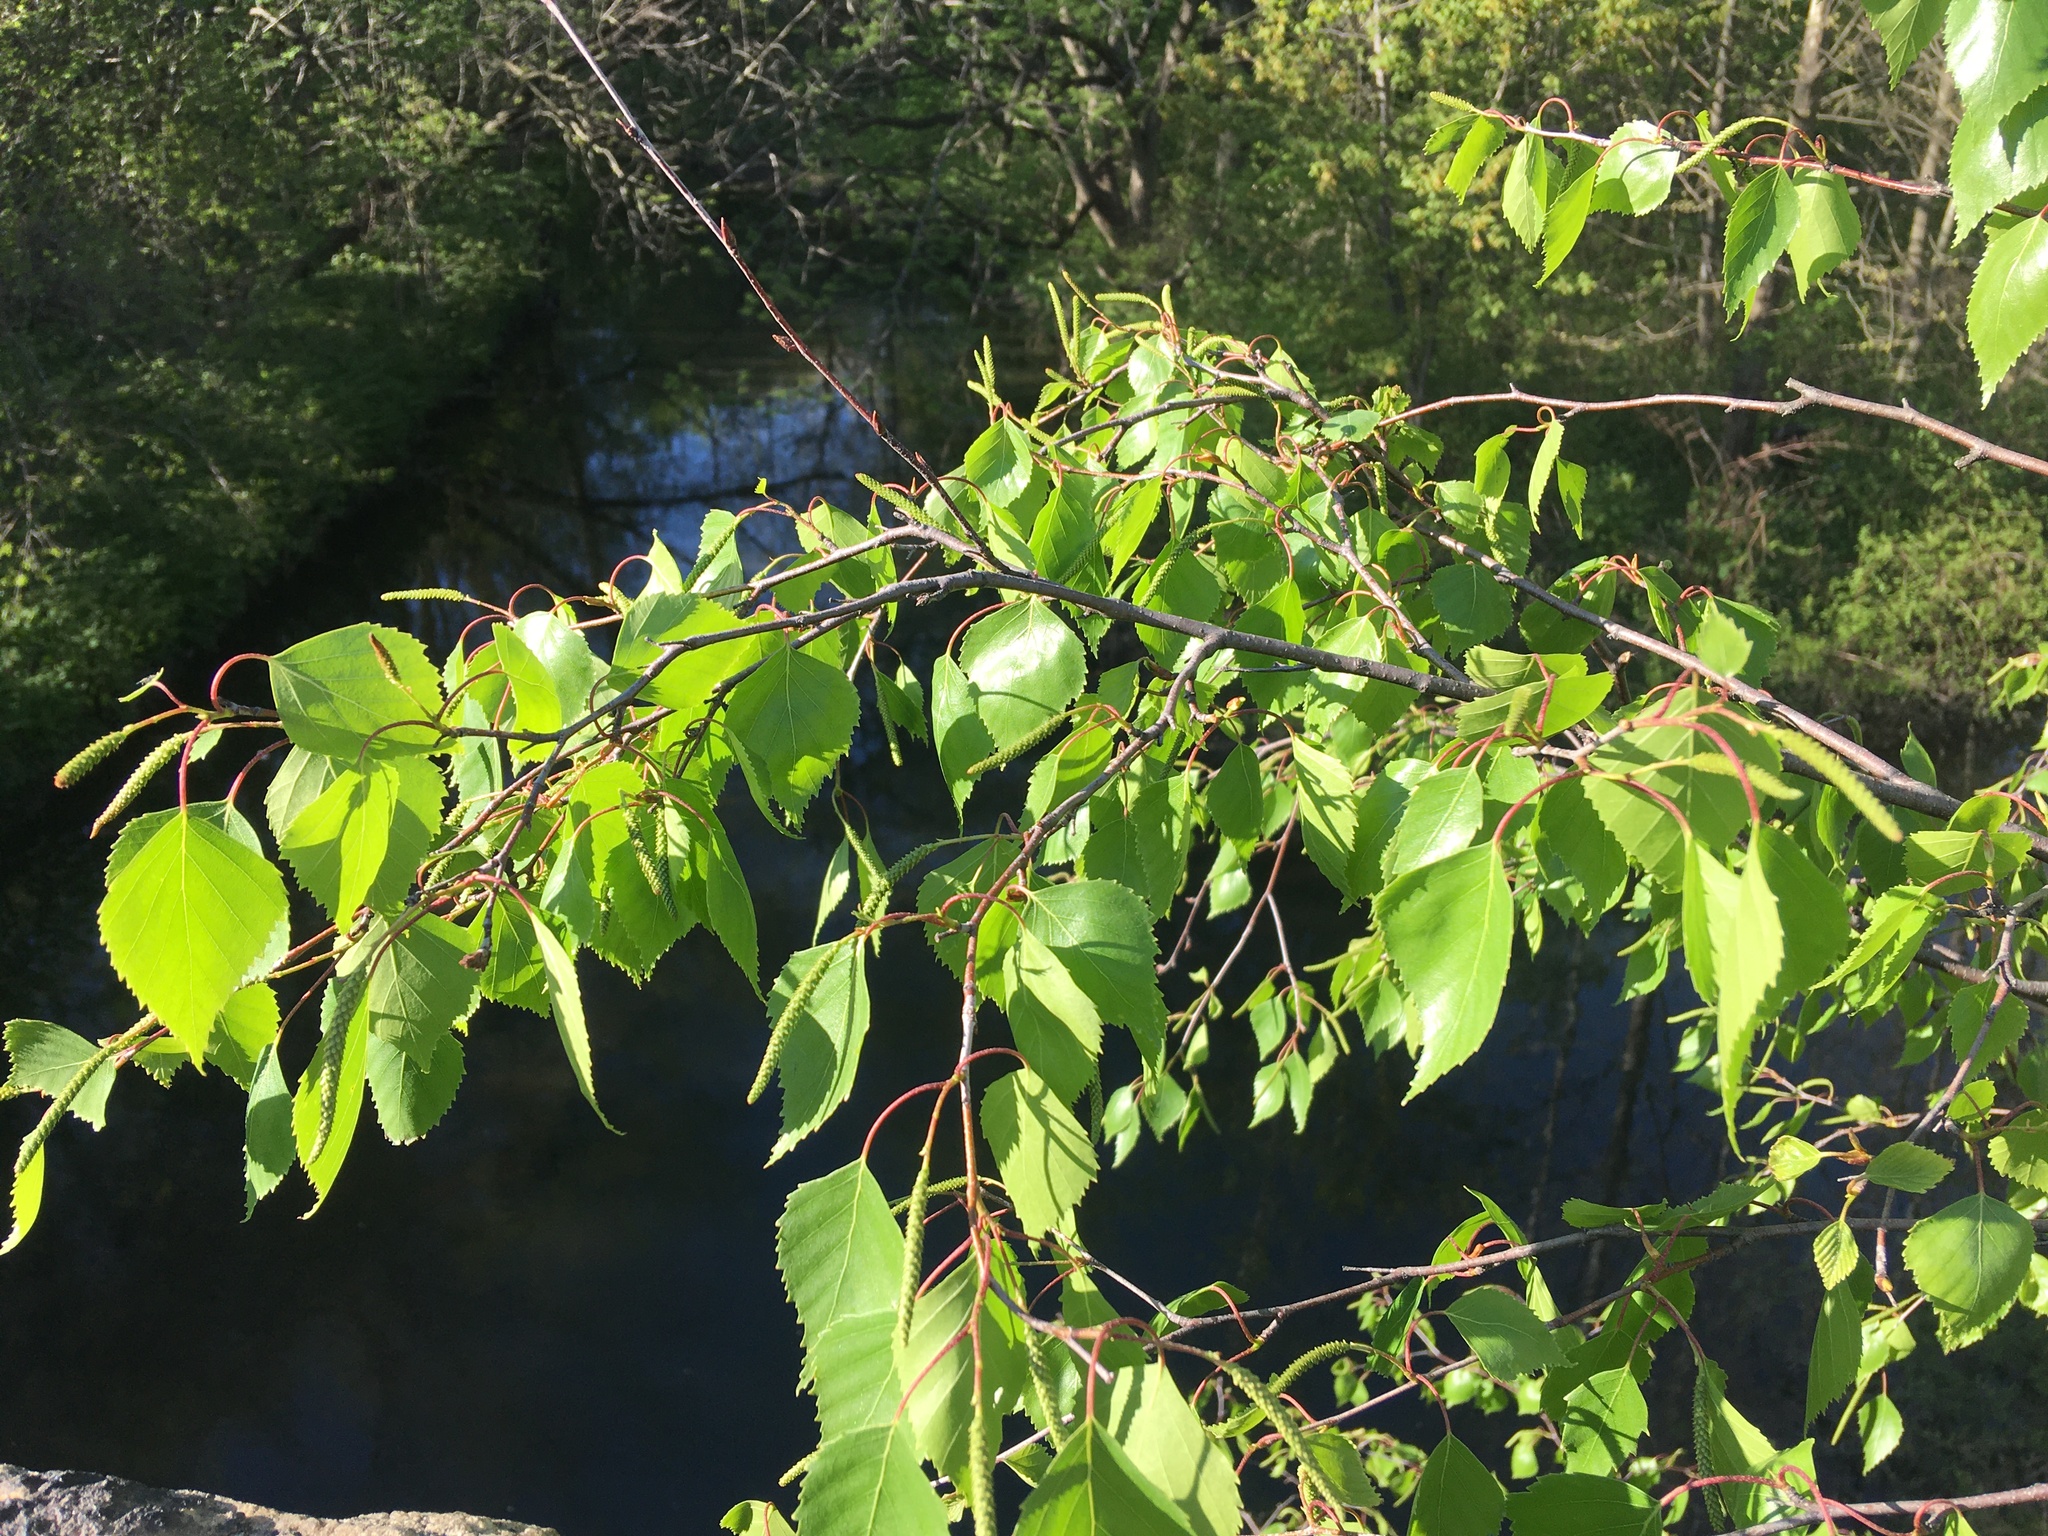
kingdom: Plantae
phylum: Tracheophyta
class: Magnoliopsida
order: Fagales
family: Betulaceae
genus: Betula
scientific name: Betula populifolia
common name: Fire birch
